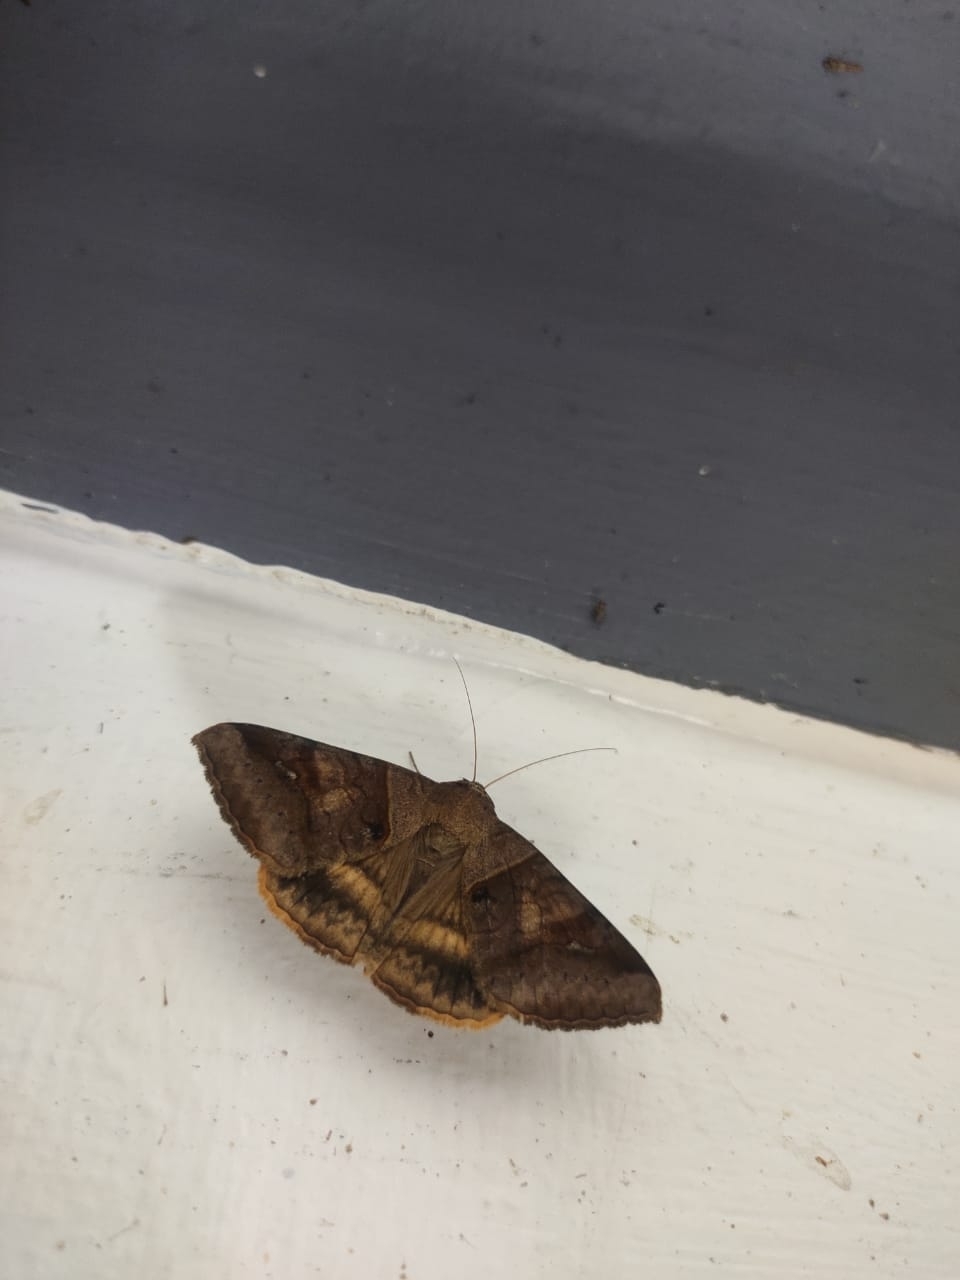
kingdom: Animalia
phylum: Arthropoda
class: Insecta
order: Lepidoptera
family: Erebidae
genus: Mocis
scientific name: Mocis undata
